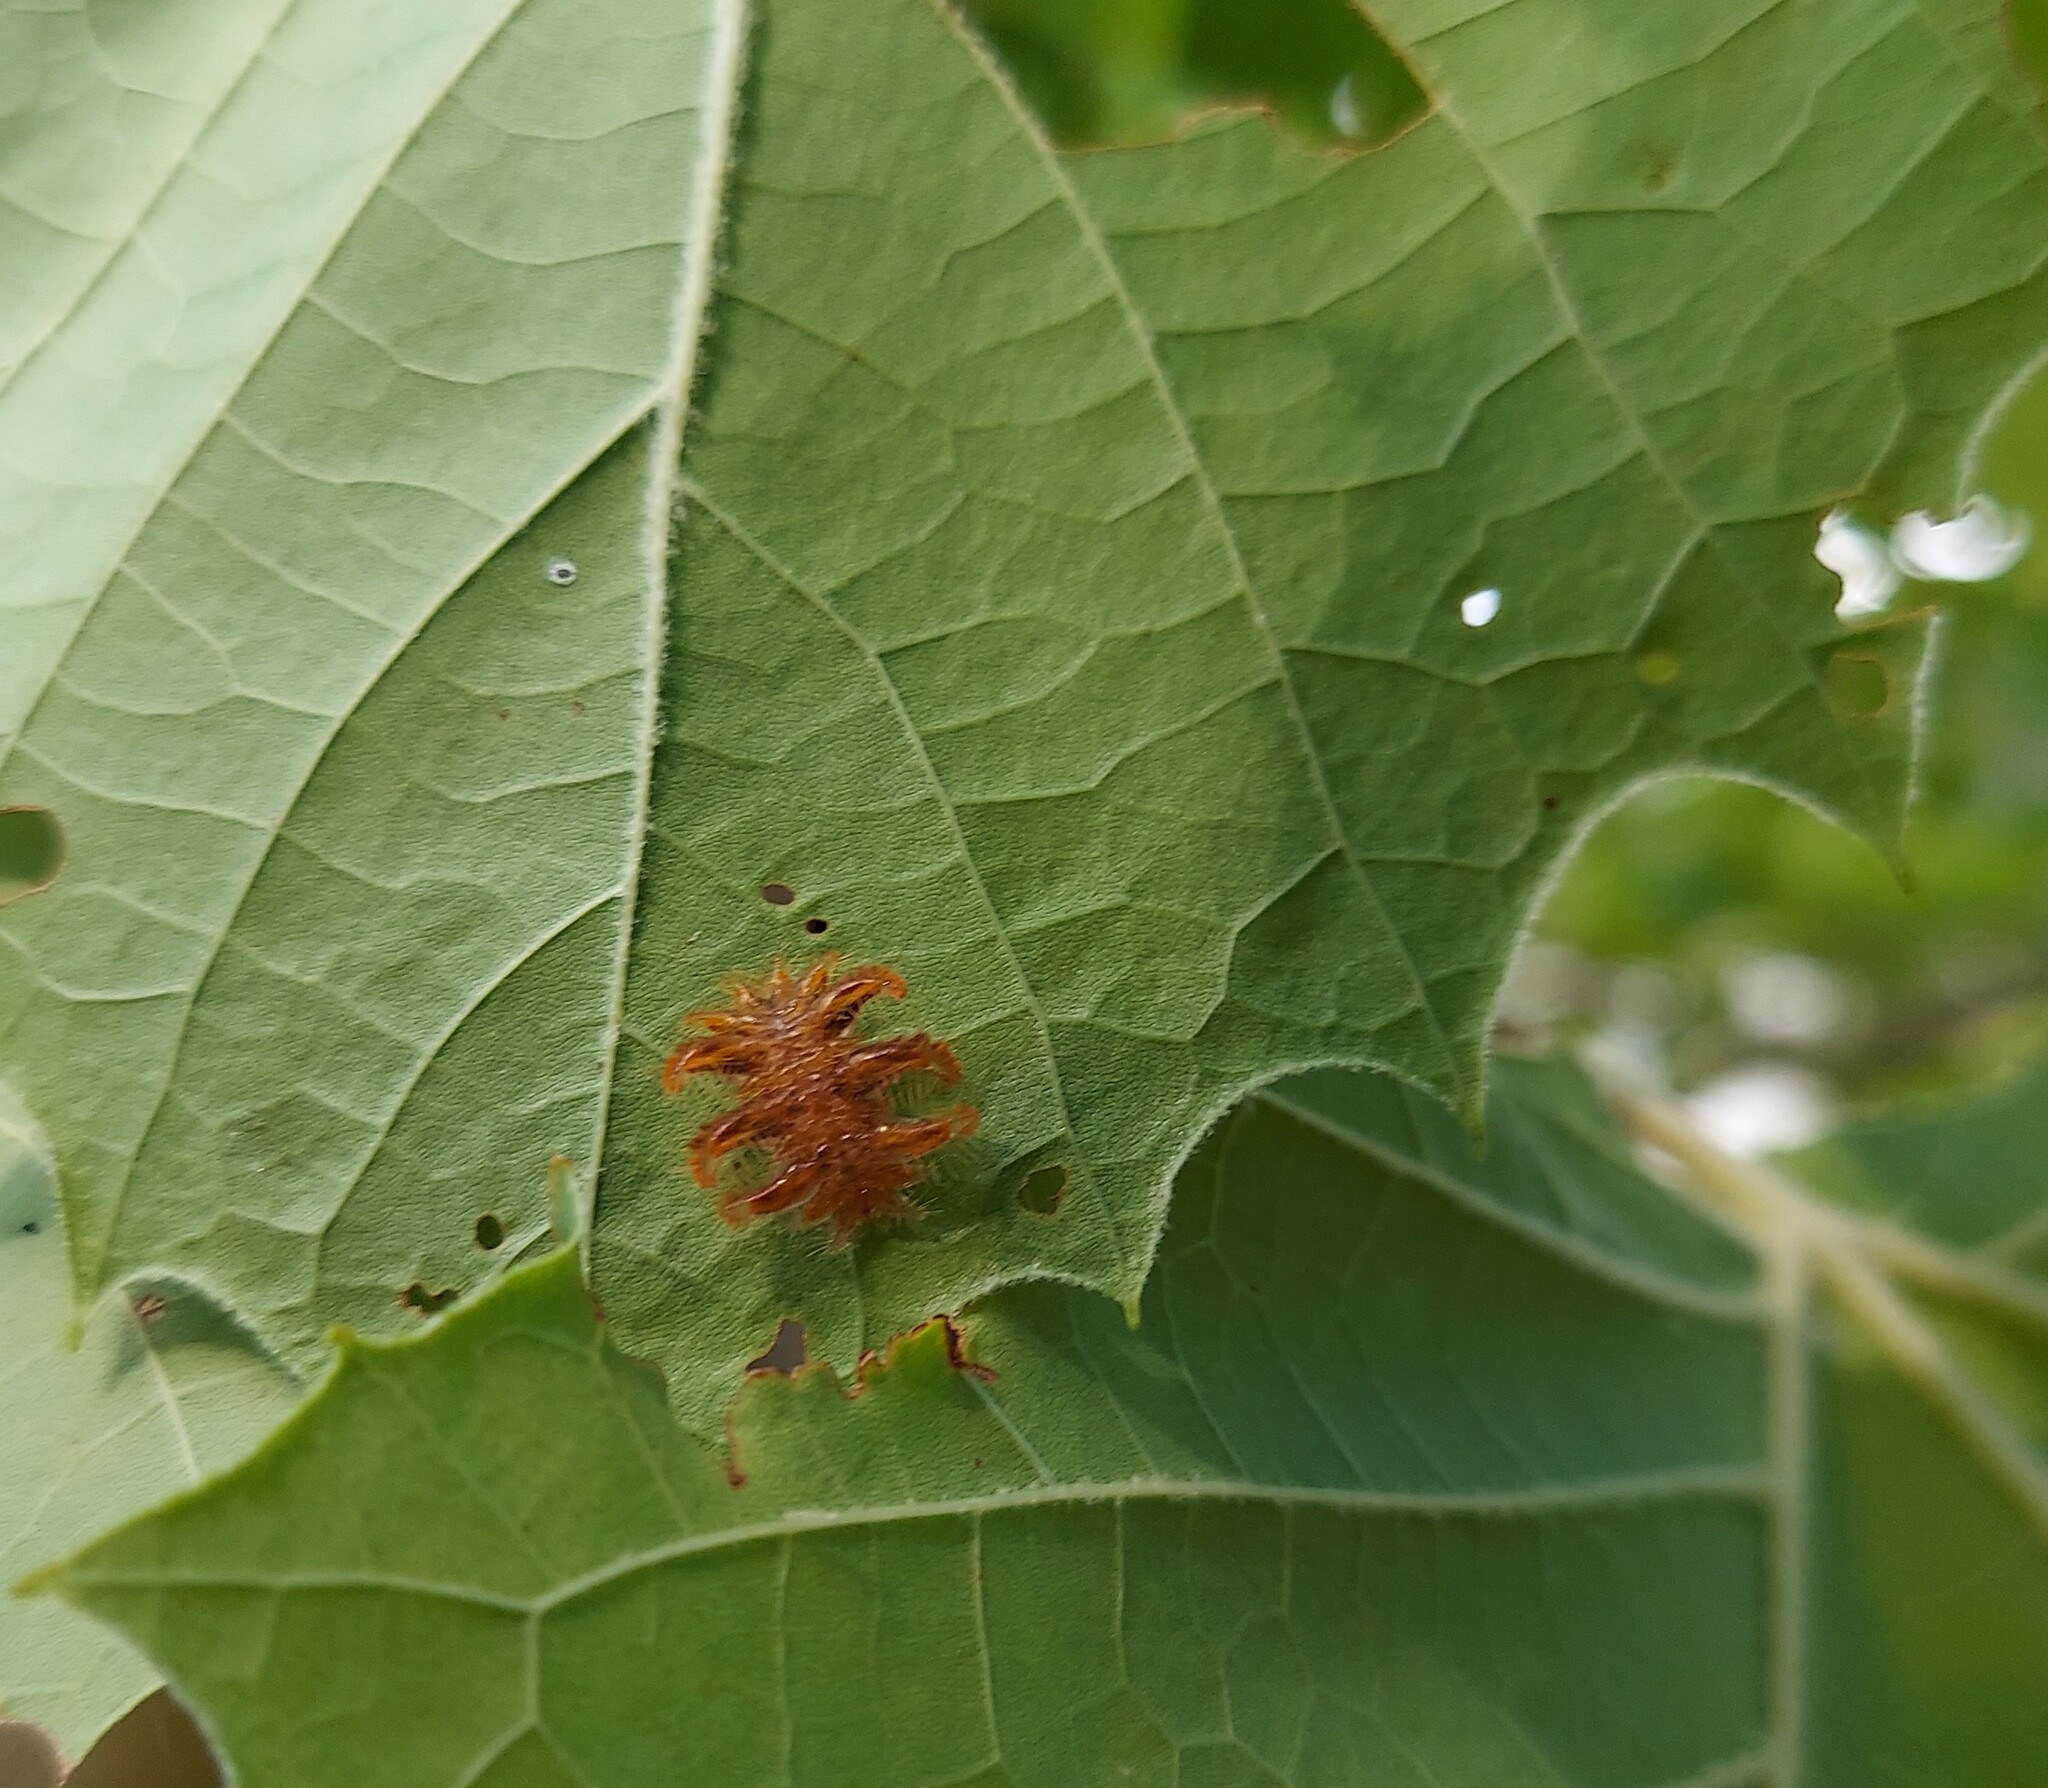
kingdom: Animalia
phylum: Arthropoda
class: Insecta
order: Lepidoptera
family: Limacodidae
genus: Phobetron
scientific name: Phobetron pithecium
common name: Hag moth
